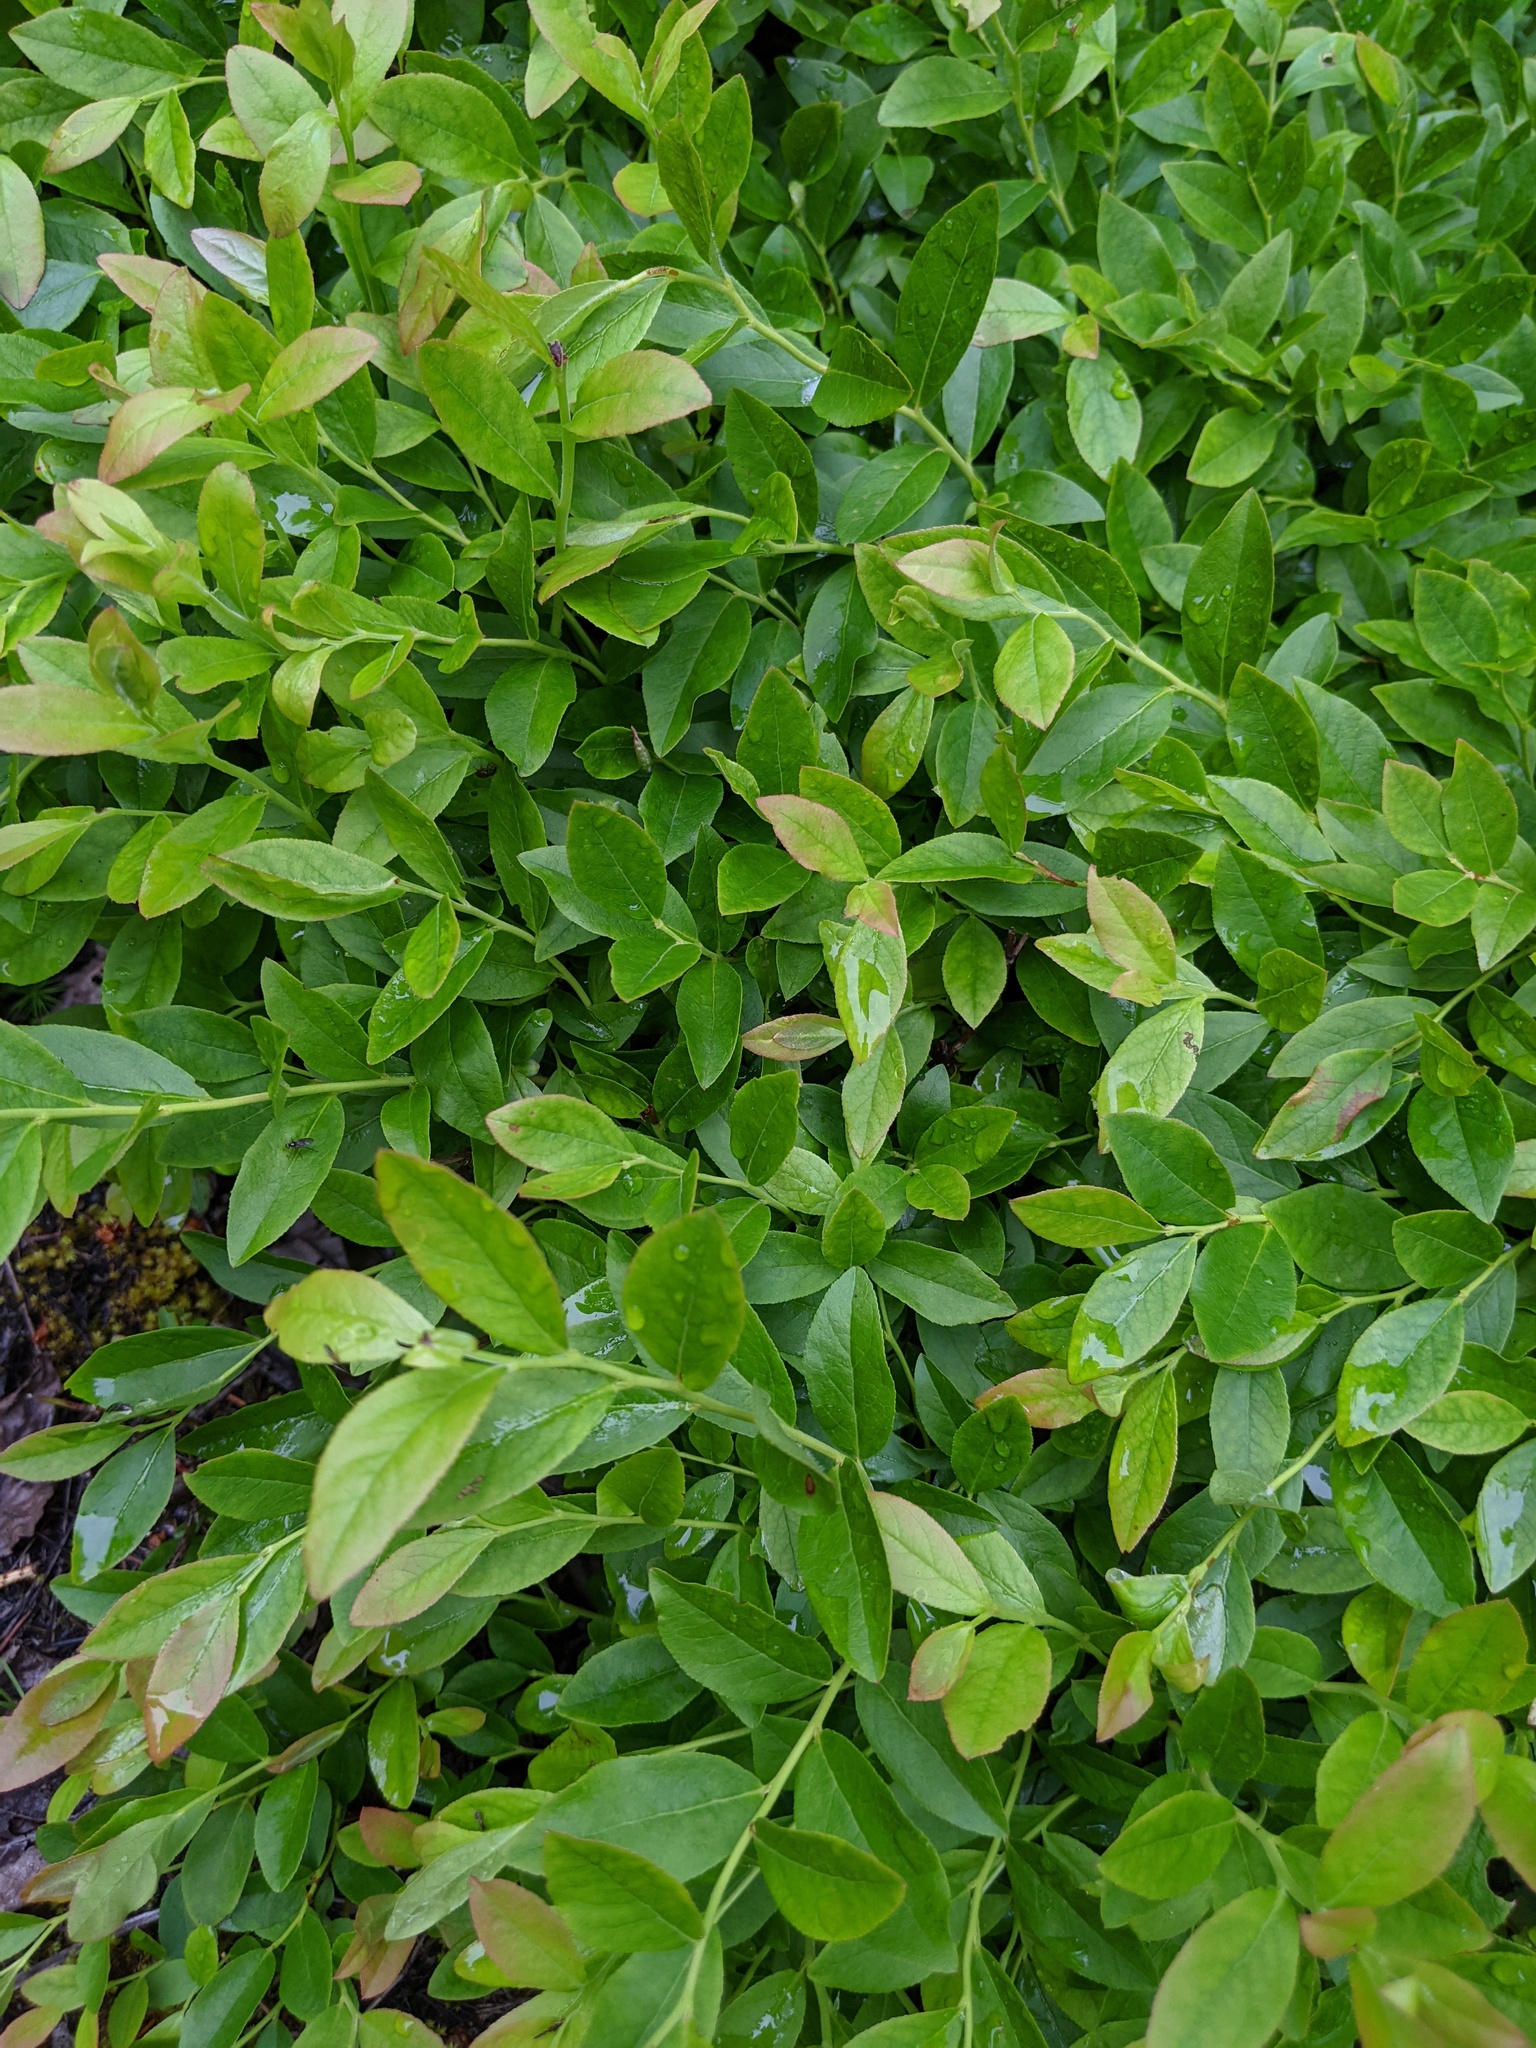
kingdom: Plantae
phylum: Tracheophyta
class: Magnoliopsida
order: Ericales
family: Ericaceae
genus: Vaccinium
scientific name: Vaccinium angustifolium
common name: Early lowbush blueberry
